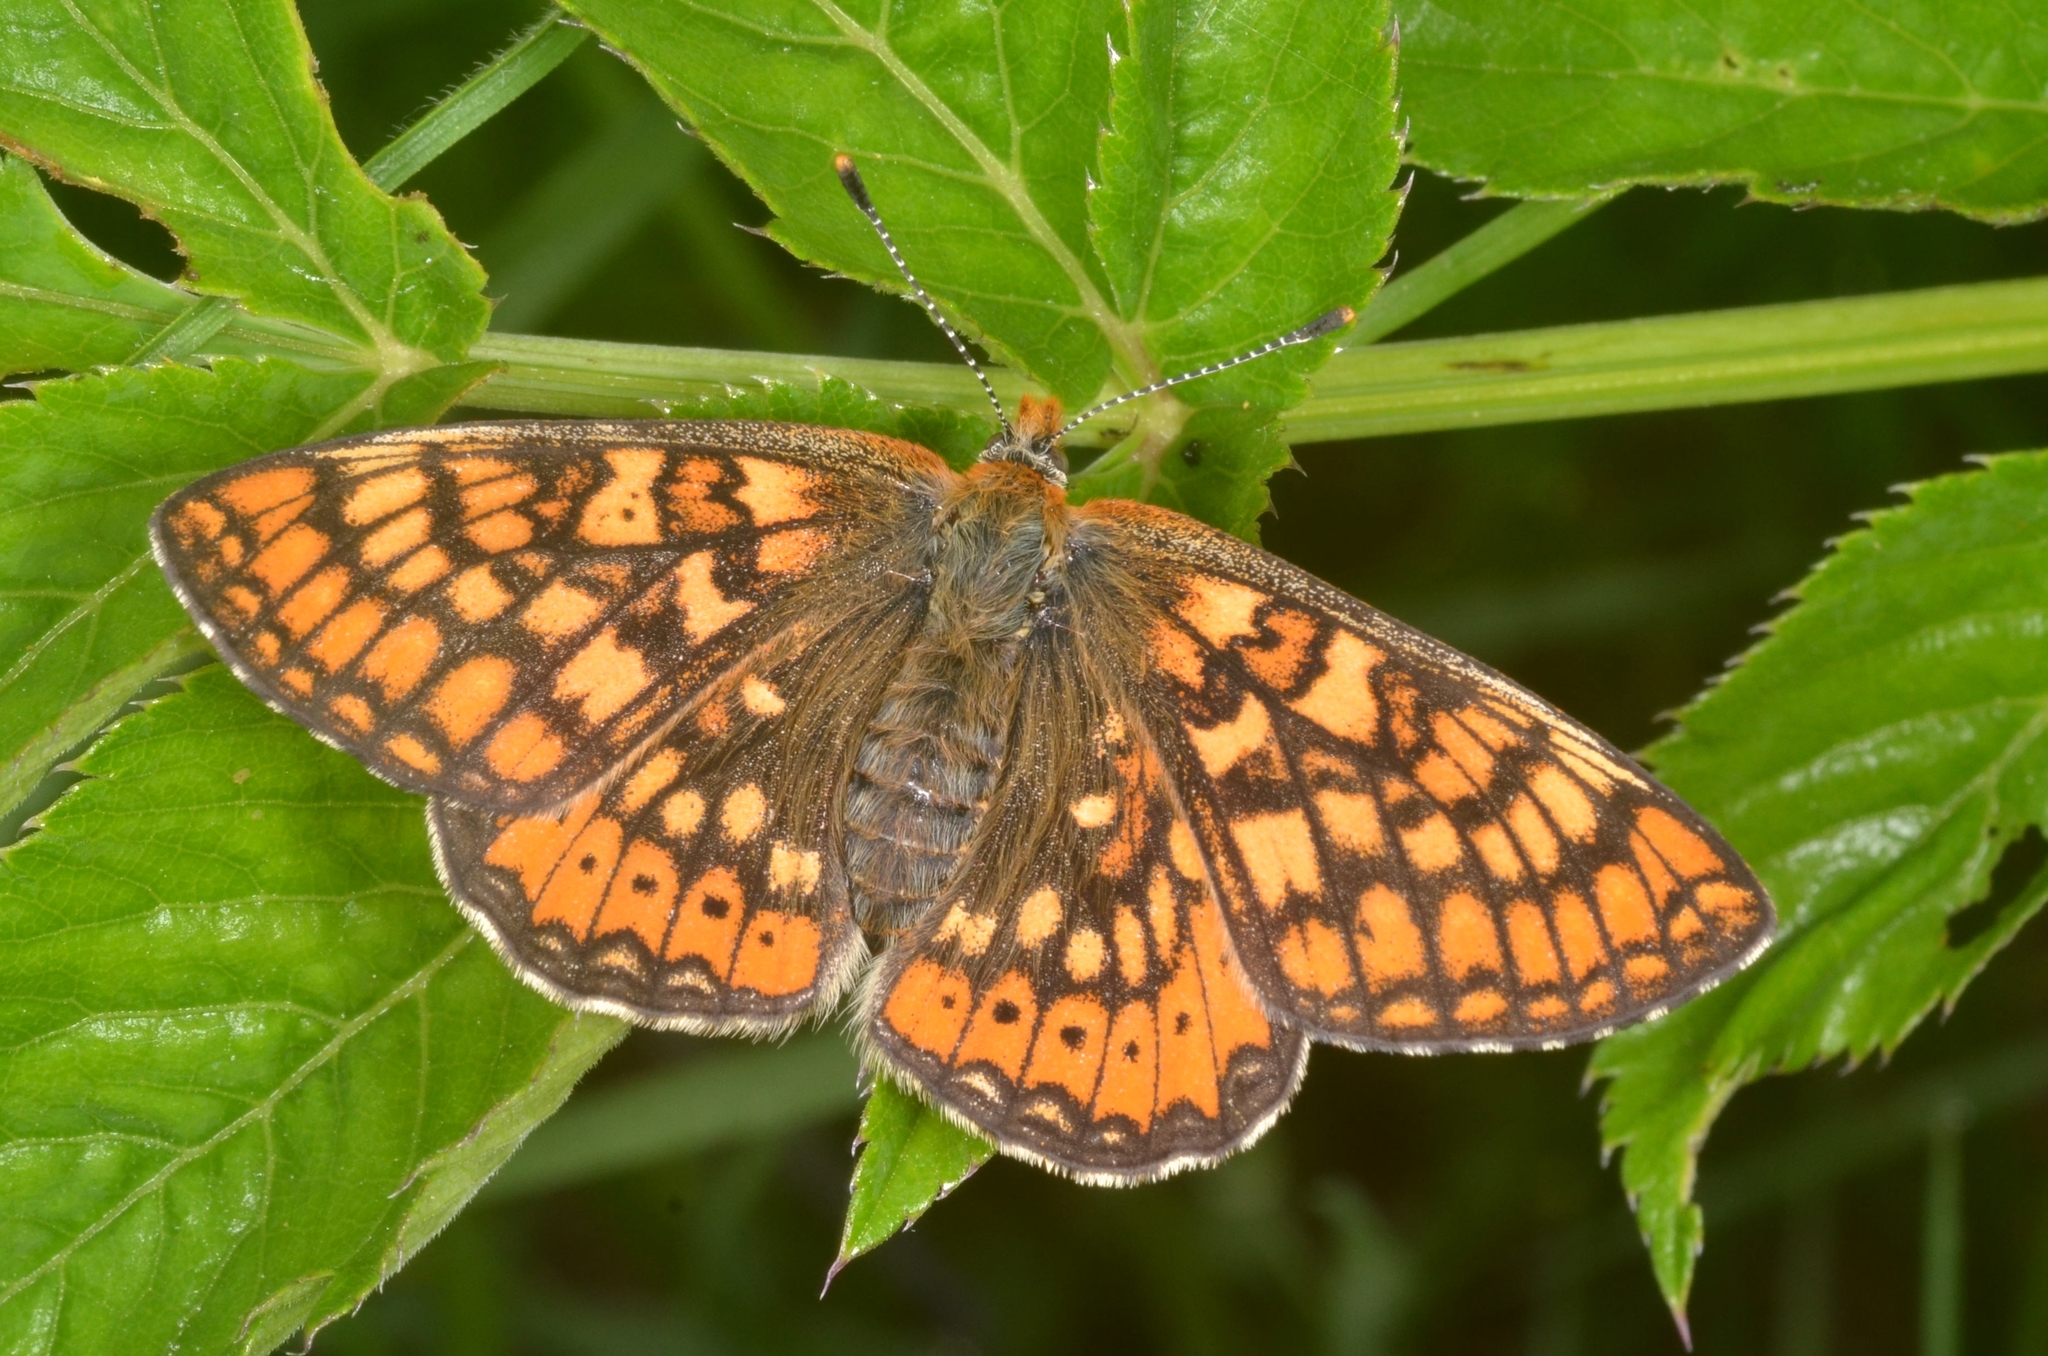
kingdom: Animalia
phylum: Arthropoda
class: Insecta
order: Lepidoptera
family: Nymphalidae
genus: Euphydryas
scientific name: Euphydryas aurinia
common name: Marsh fritillary
